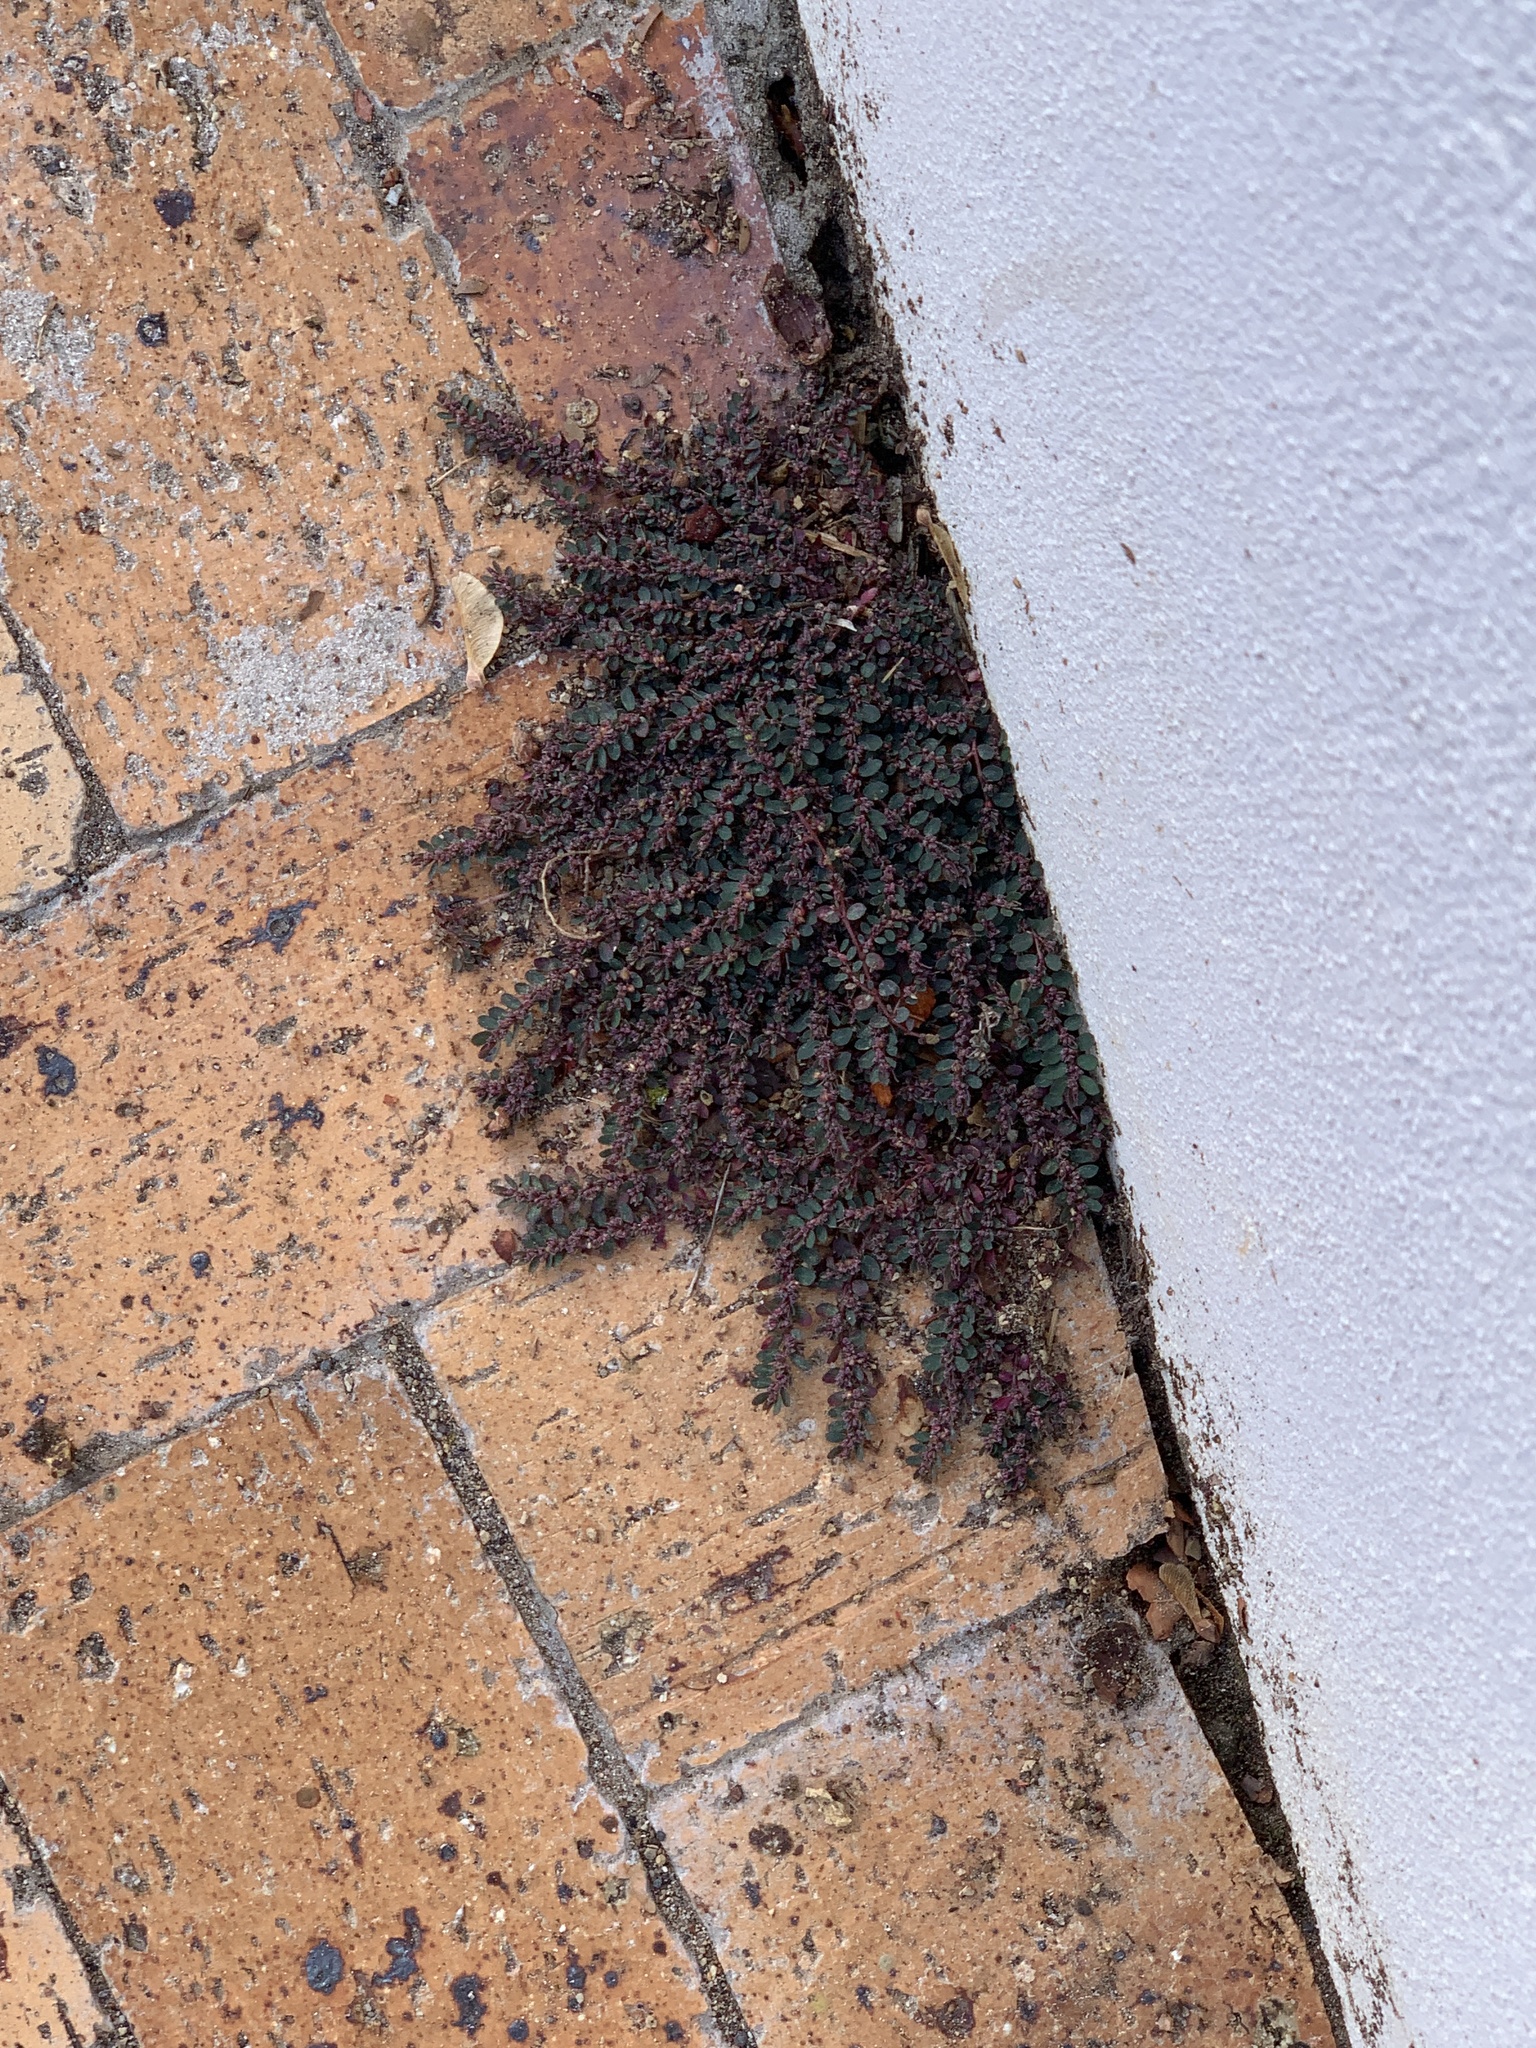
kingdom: Plantae
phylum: Tracheophyta
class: Magnoliopsida
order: Malpighiales
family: Euphorbiaceae
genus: Euphorbia
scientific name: Euphorbia prostrata
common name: Prostrate sandmat
